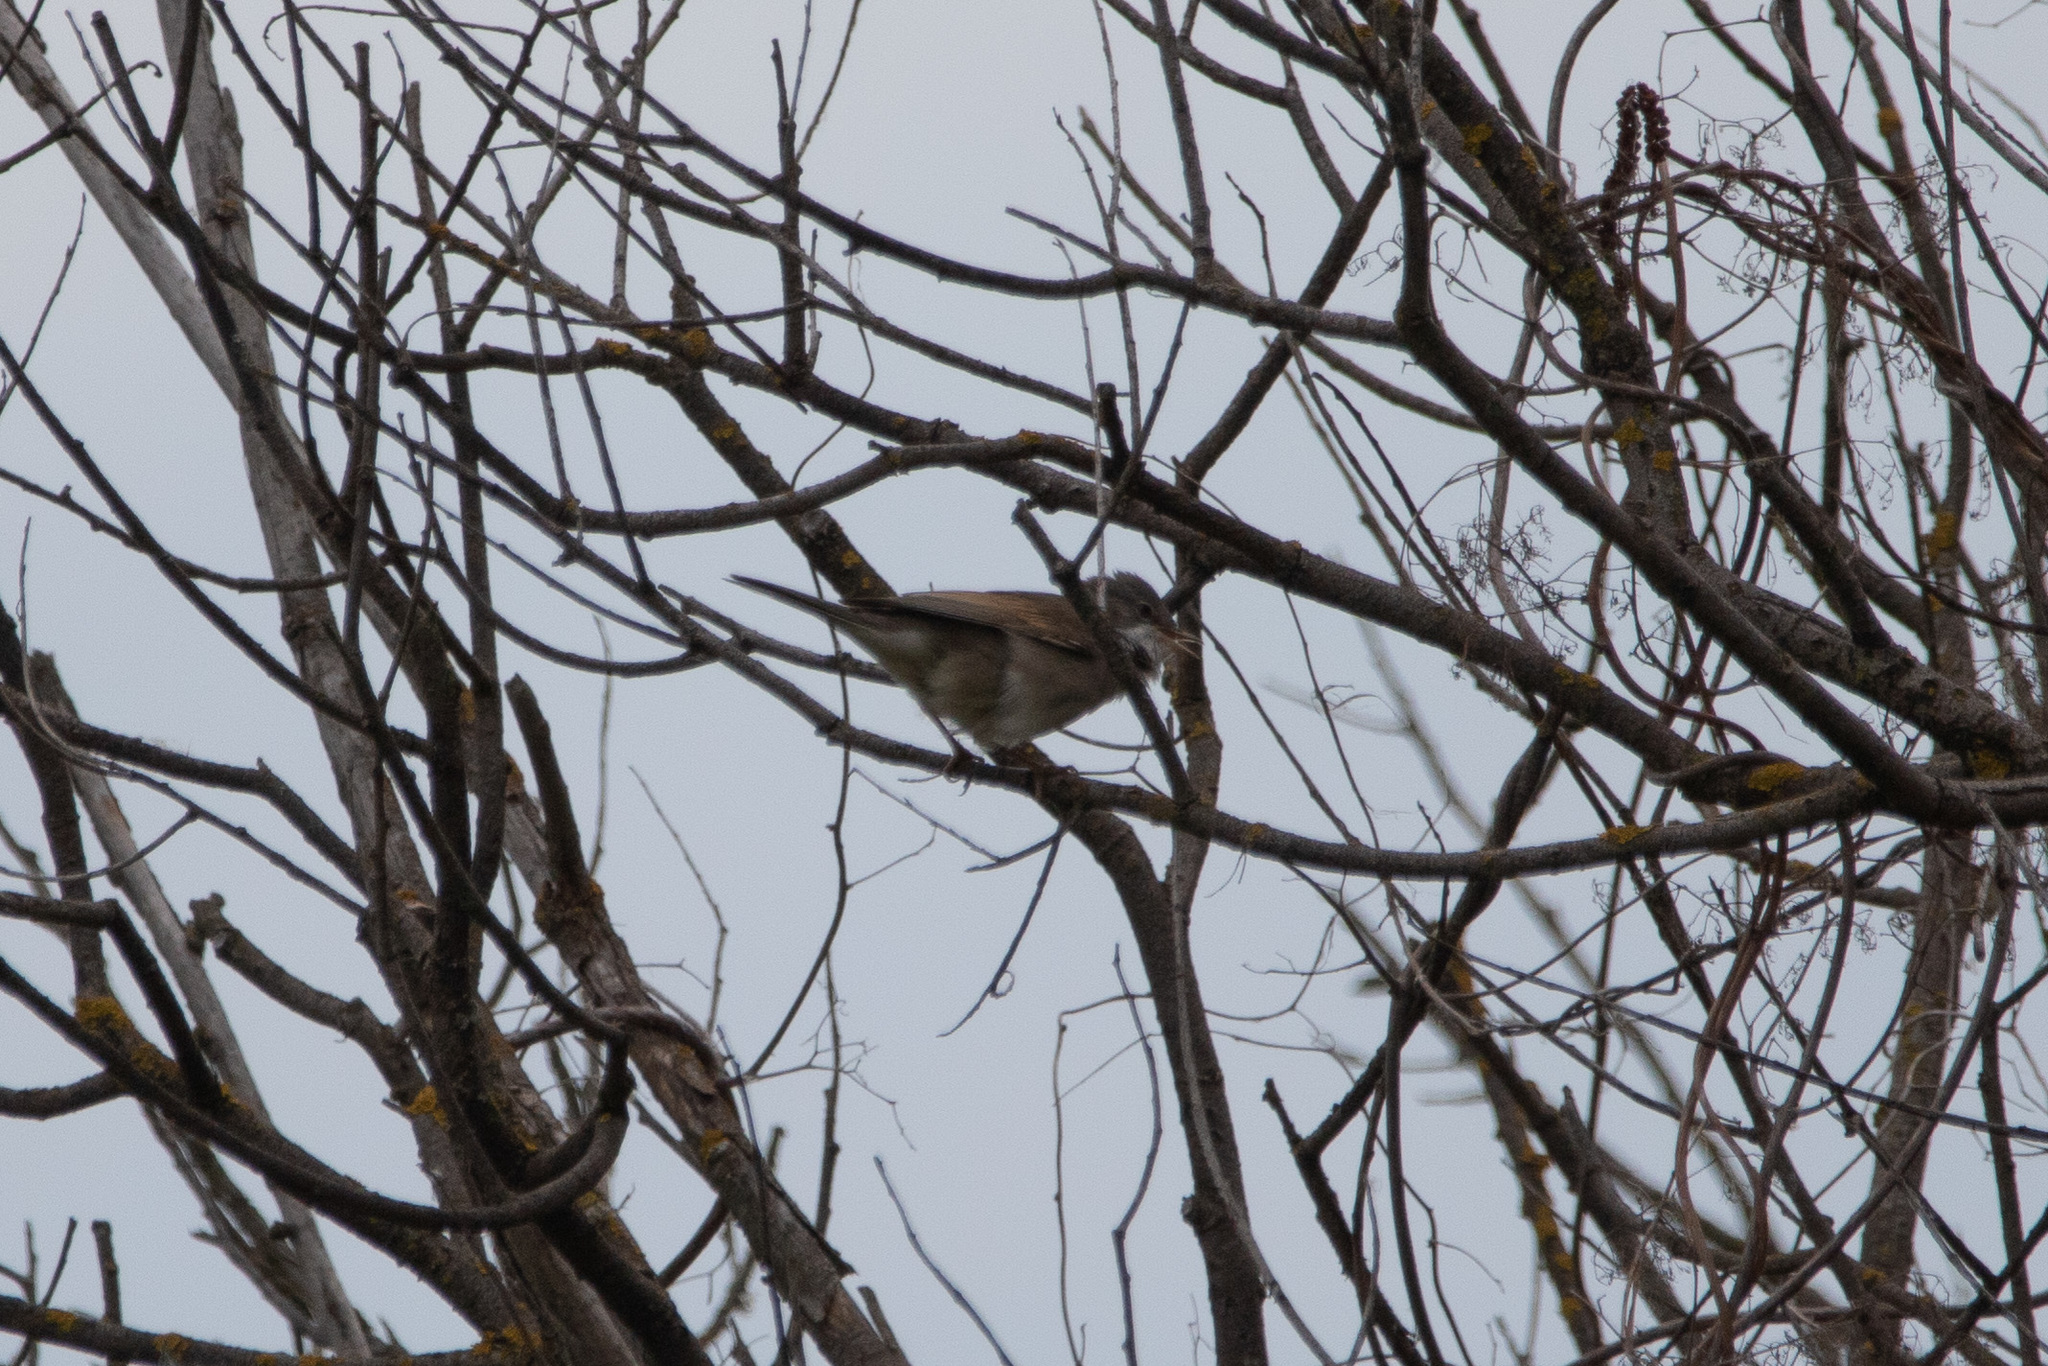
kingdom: Animalia
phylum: Chordata
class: Aves
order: Passeriformes
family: Sylviidae
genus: Sylvia
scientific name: Sylvia communis
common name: Common whitethroat
